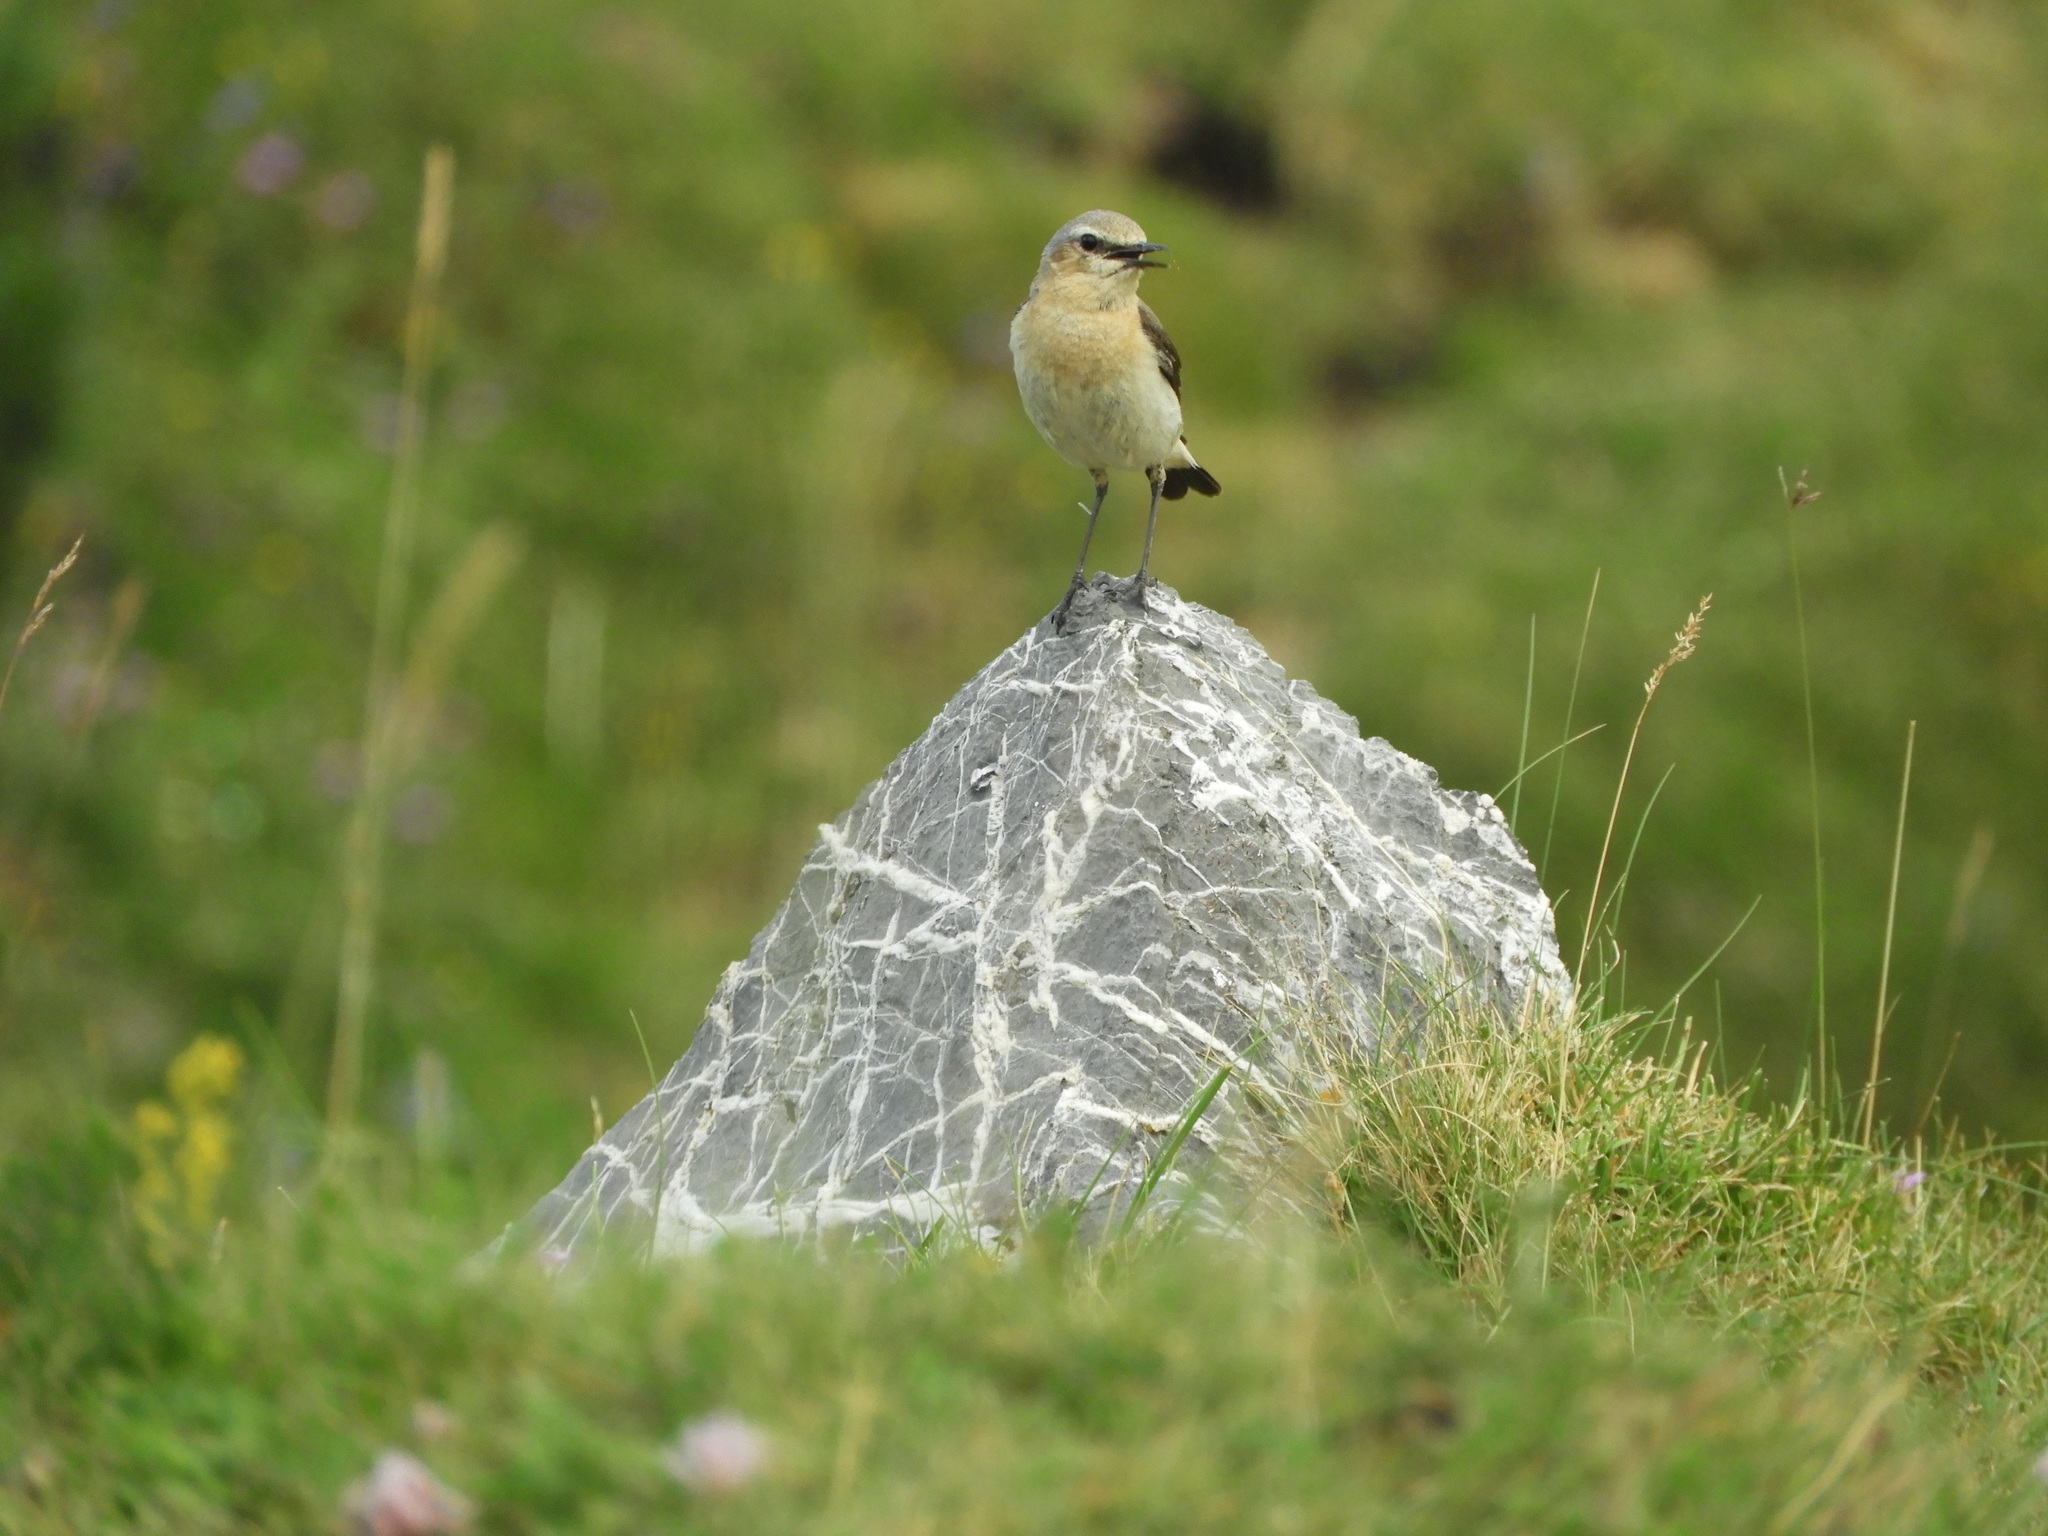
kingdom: Animalia
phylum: Chordata
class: Aves
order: Passeriformes
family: Muscicapidae
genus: Oenanthe
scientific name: Oenanthe oenanthe
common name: Northern wheatear
